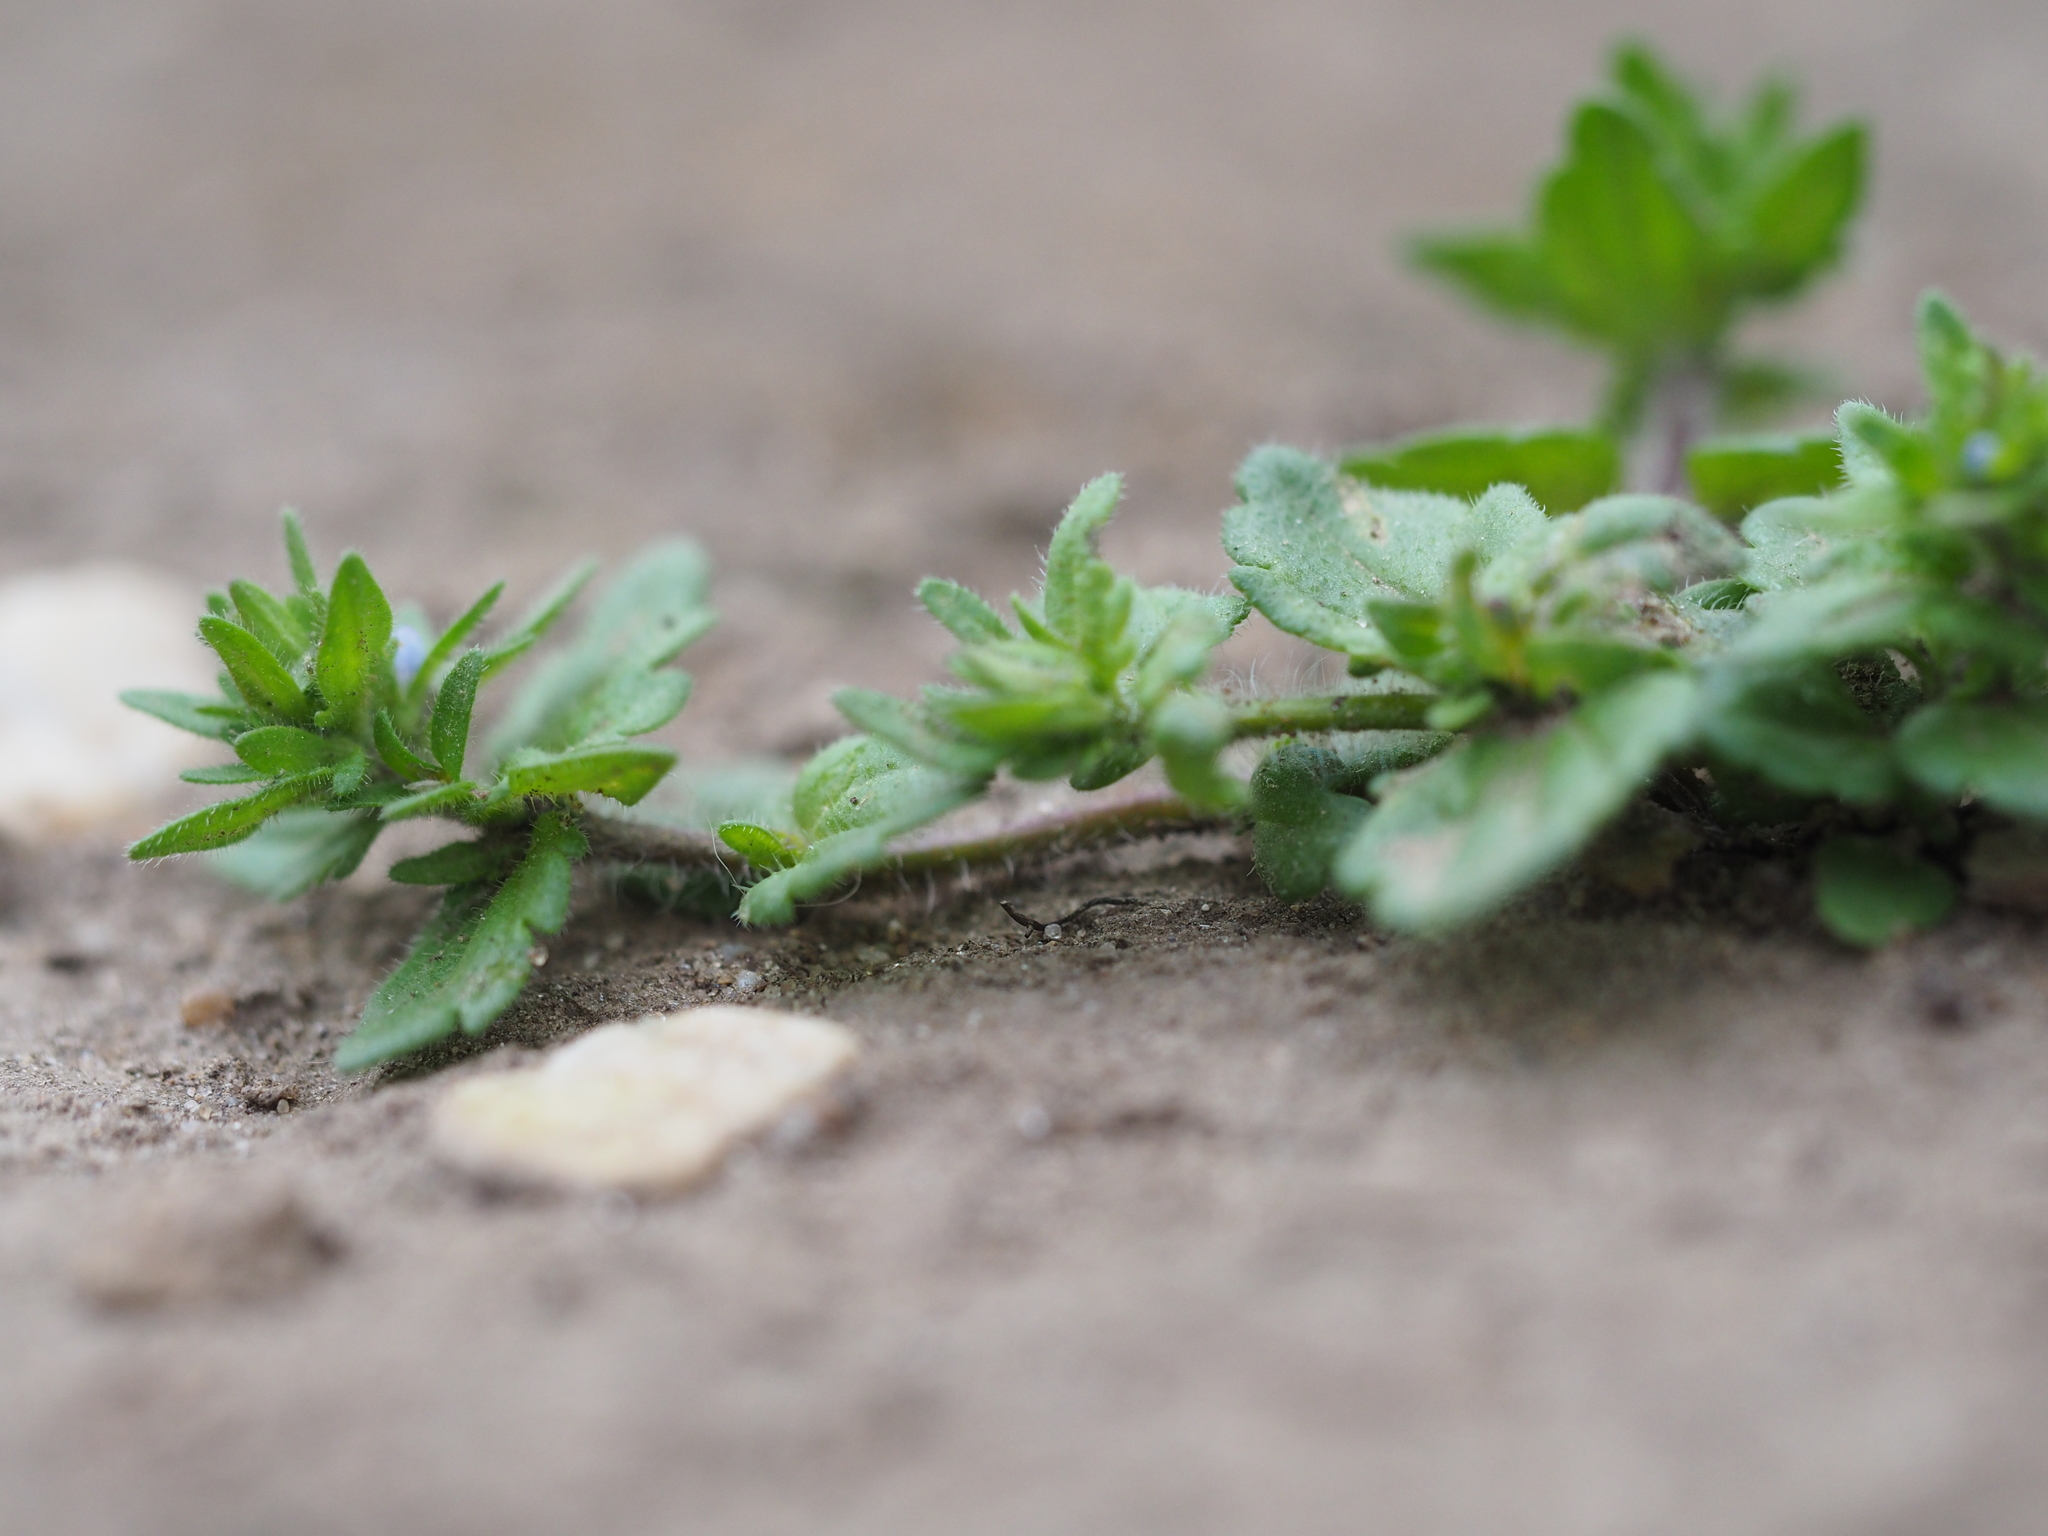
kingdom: Plantae
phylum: Tracheophyta
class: Magnoliopsida
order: Lamiales
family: Plantaginaceae
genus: Veronica
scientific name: Veronica arvensis
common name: Corn speedwell
